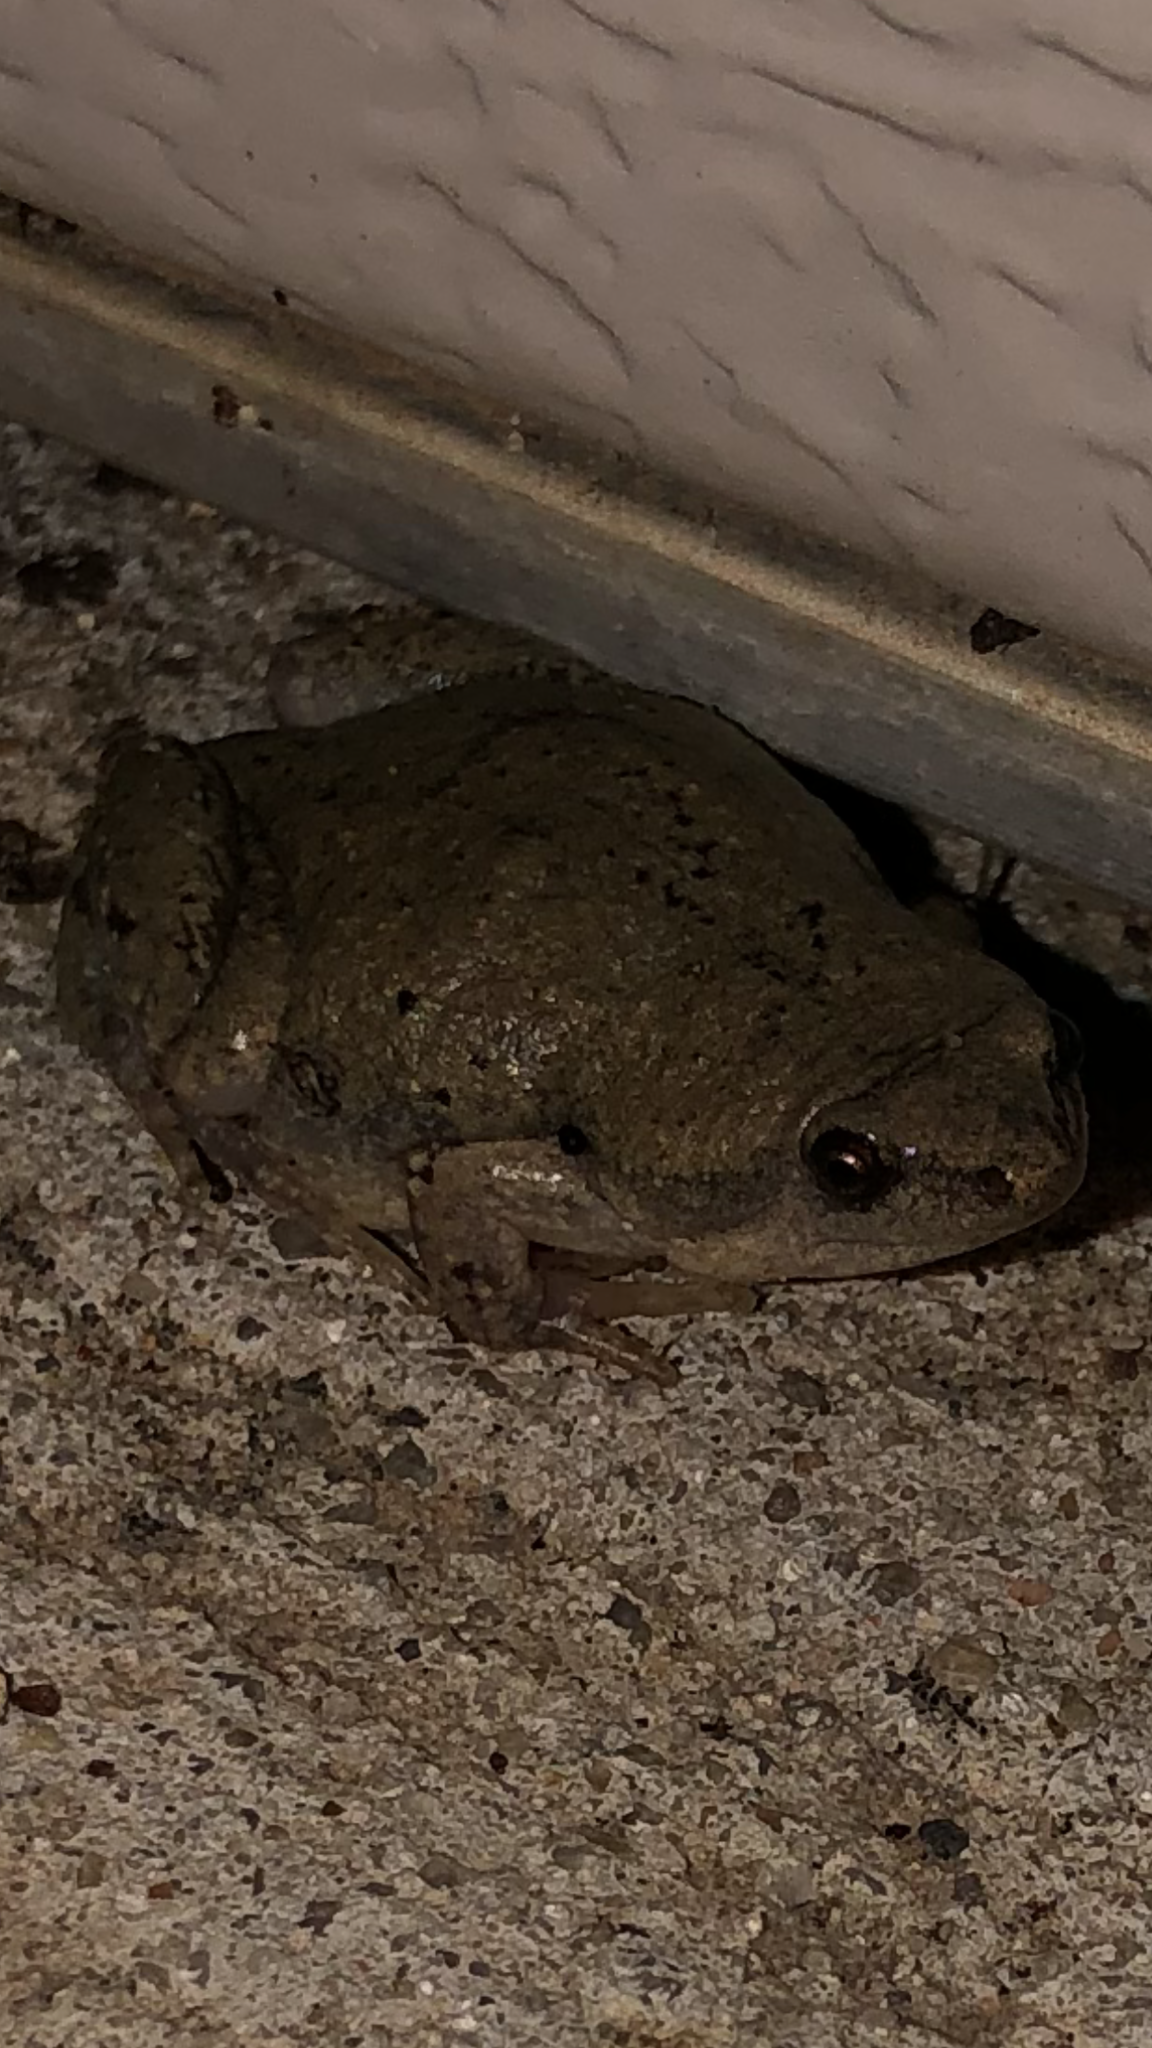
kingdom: Animalia
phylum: Chordata
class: Amphibia
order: Anura
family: Microhylidae
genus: Gastrophryne
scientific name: Gastrophryne olivacea
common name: Great plains narrow-mouthed toad
